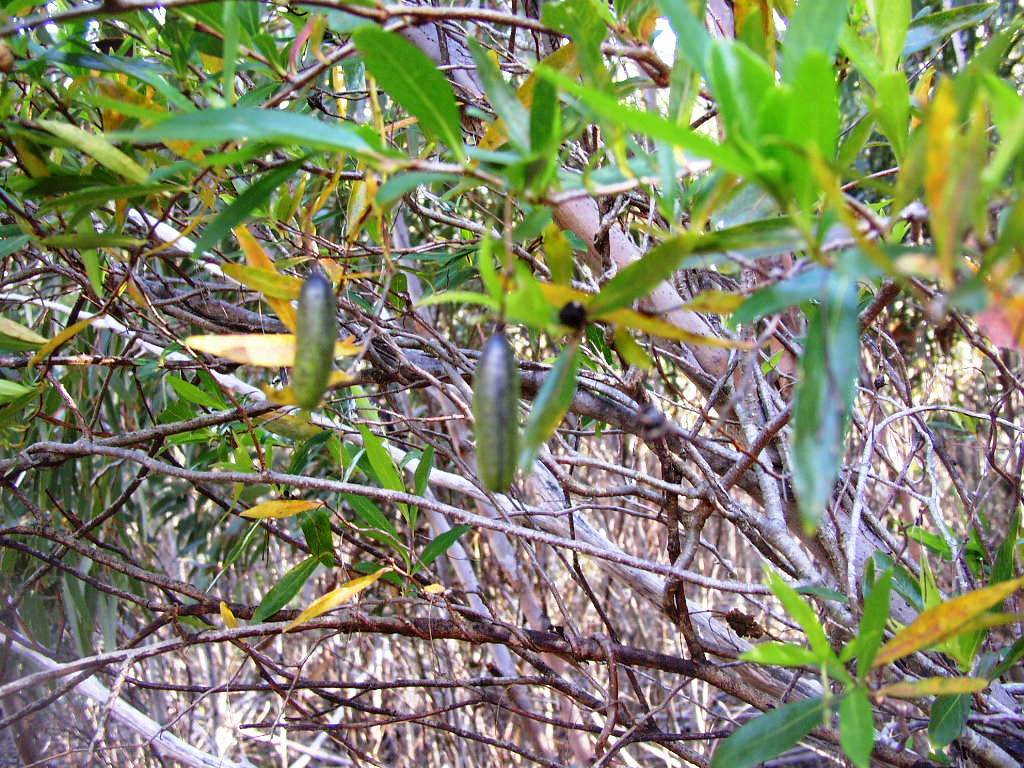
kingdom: Plantae
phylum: Tracheophyta
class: Magnoliopsida
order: Apiales
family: Pittosporaceae
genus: Billardiera
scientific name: Billardiera fusiformis
